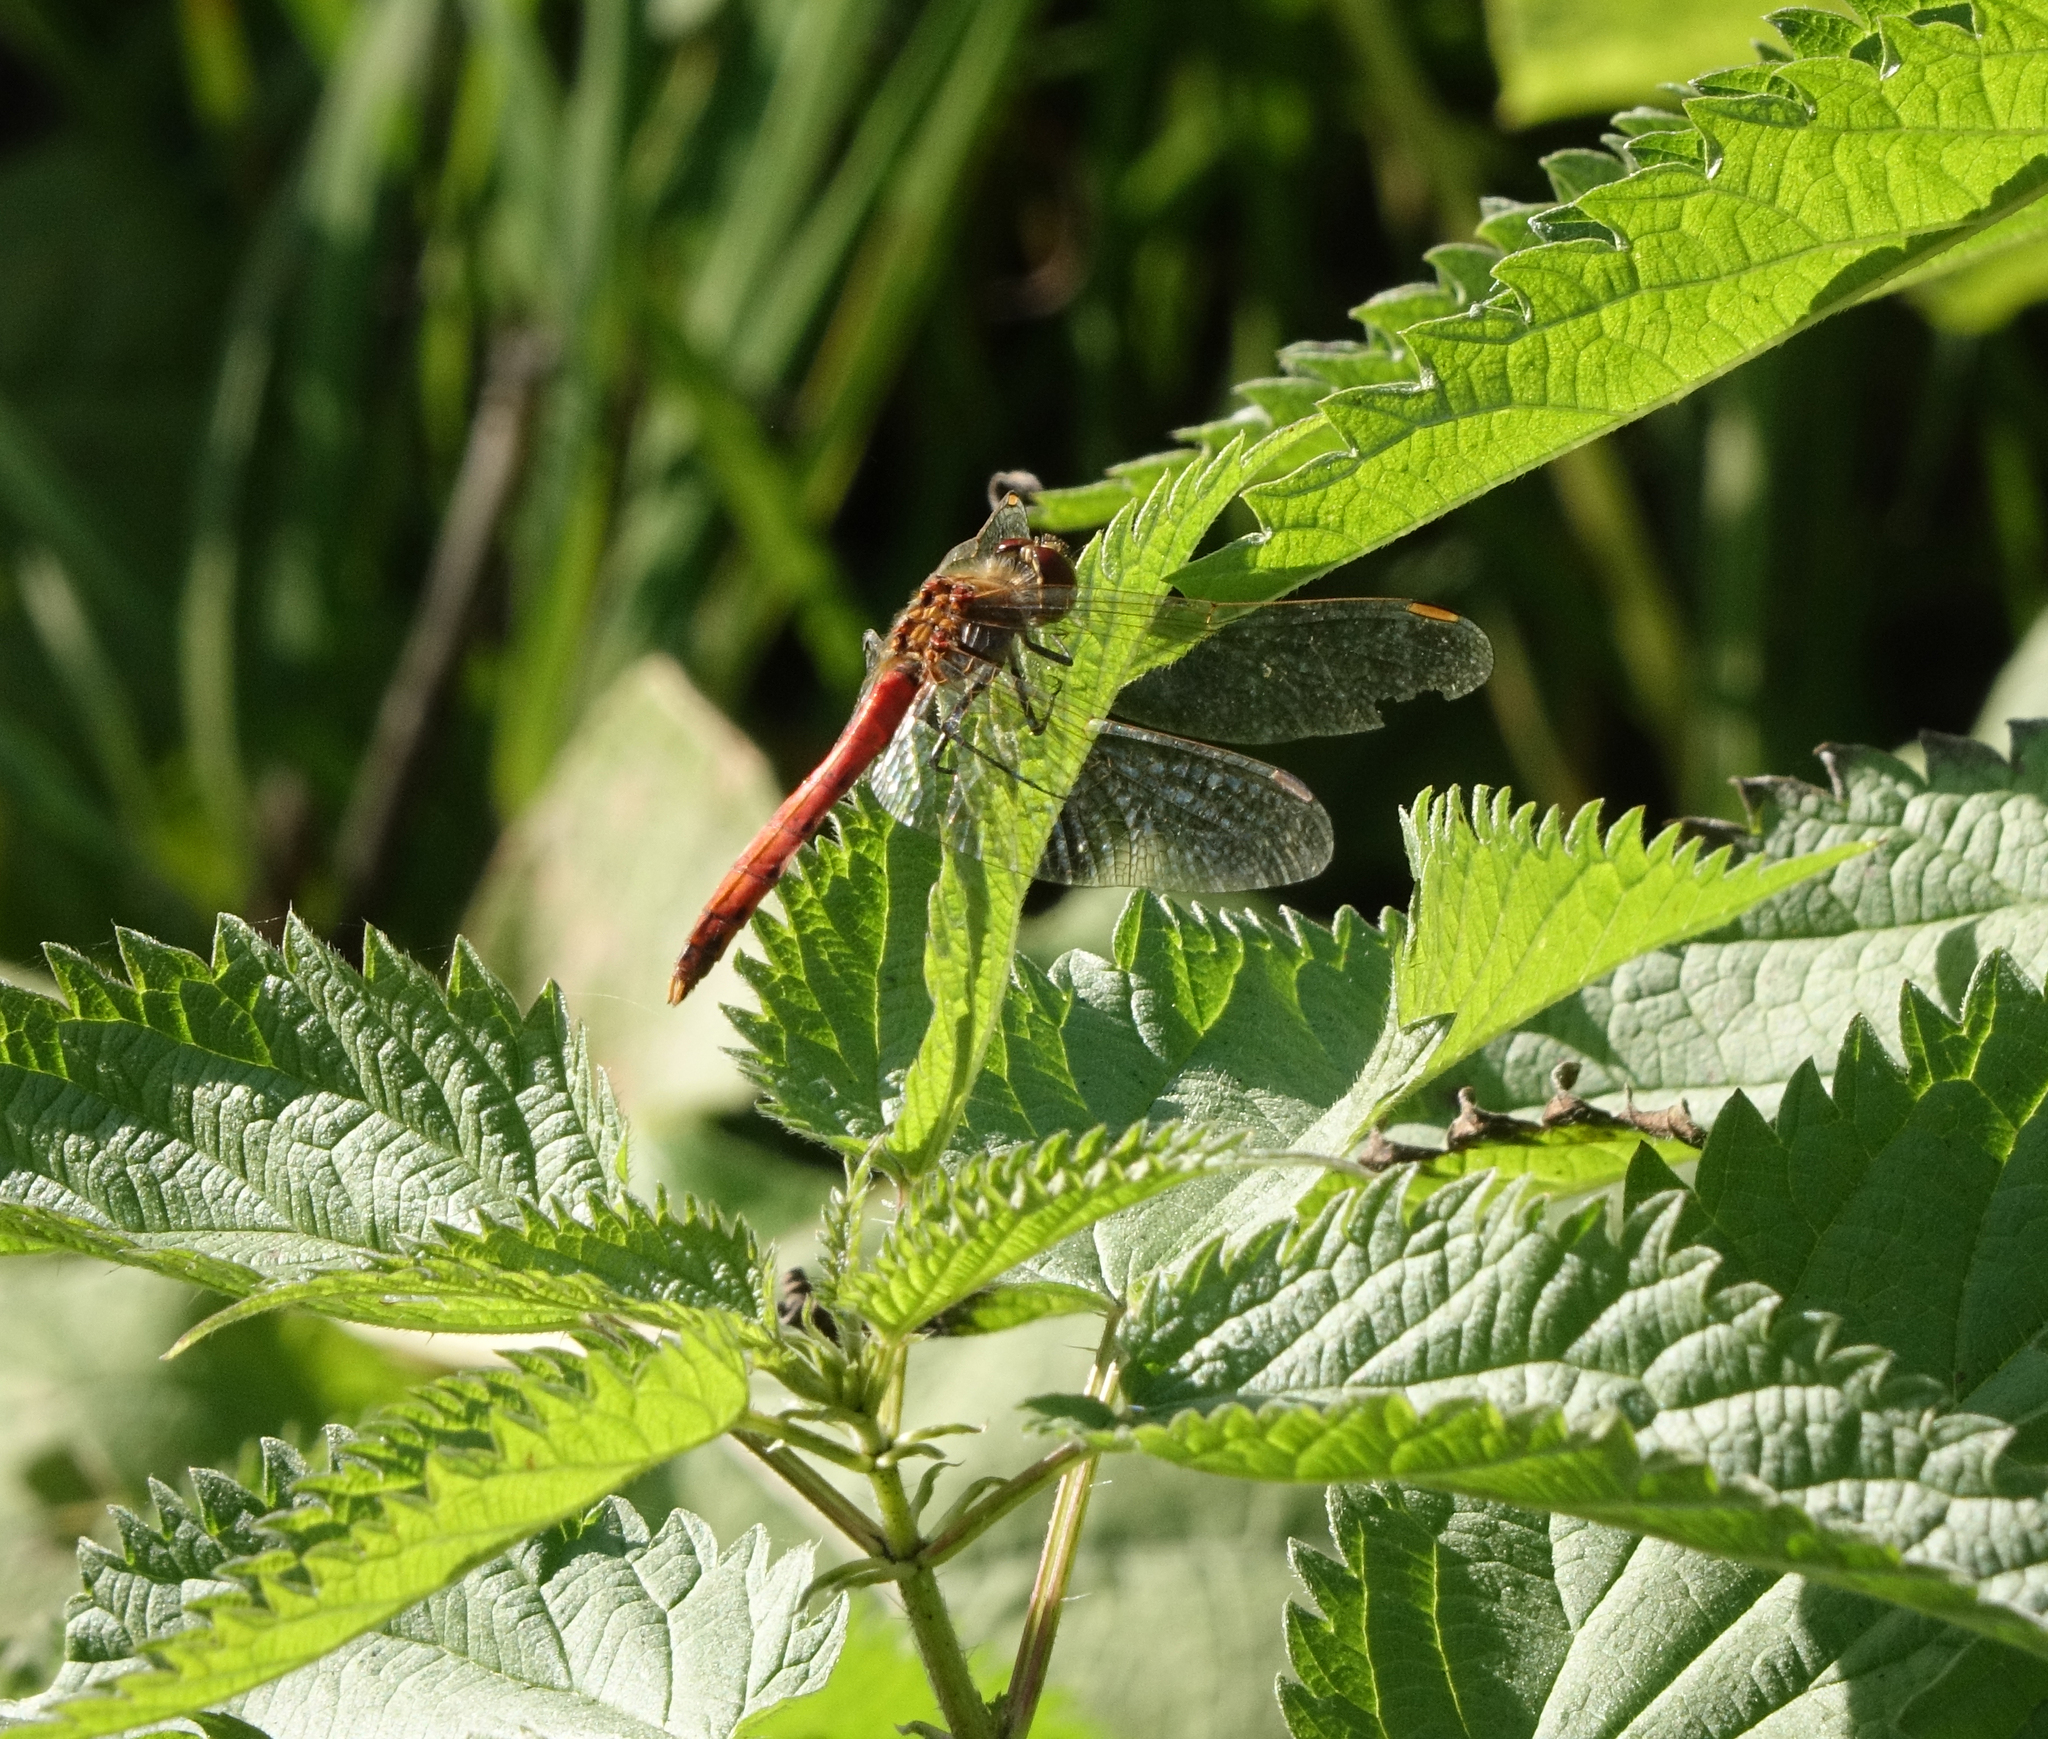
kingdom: Animalia
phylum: Arthropoda
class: Insecta
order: Odonata
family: Libellulidae
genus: Sympetrum
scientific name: Sympetrum depressiusculum
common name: Spotted darter
